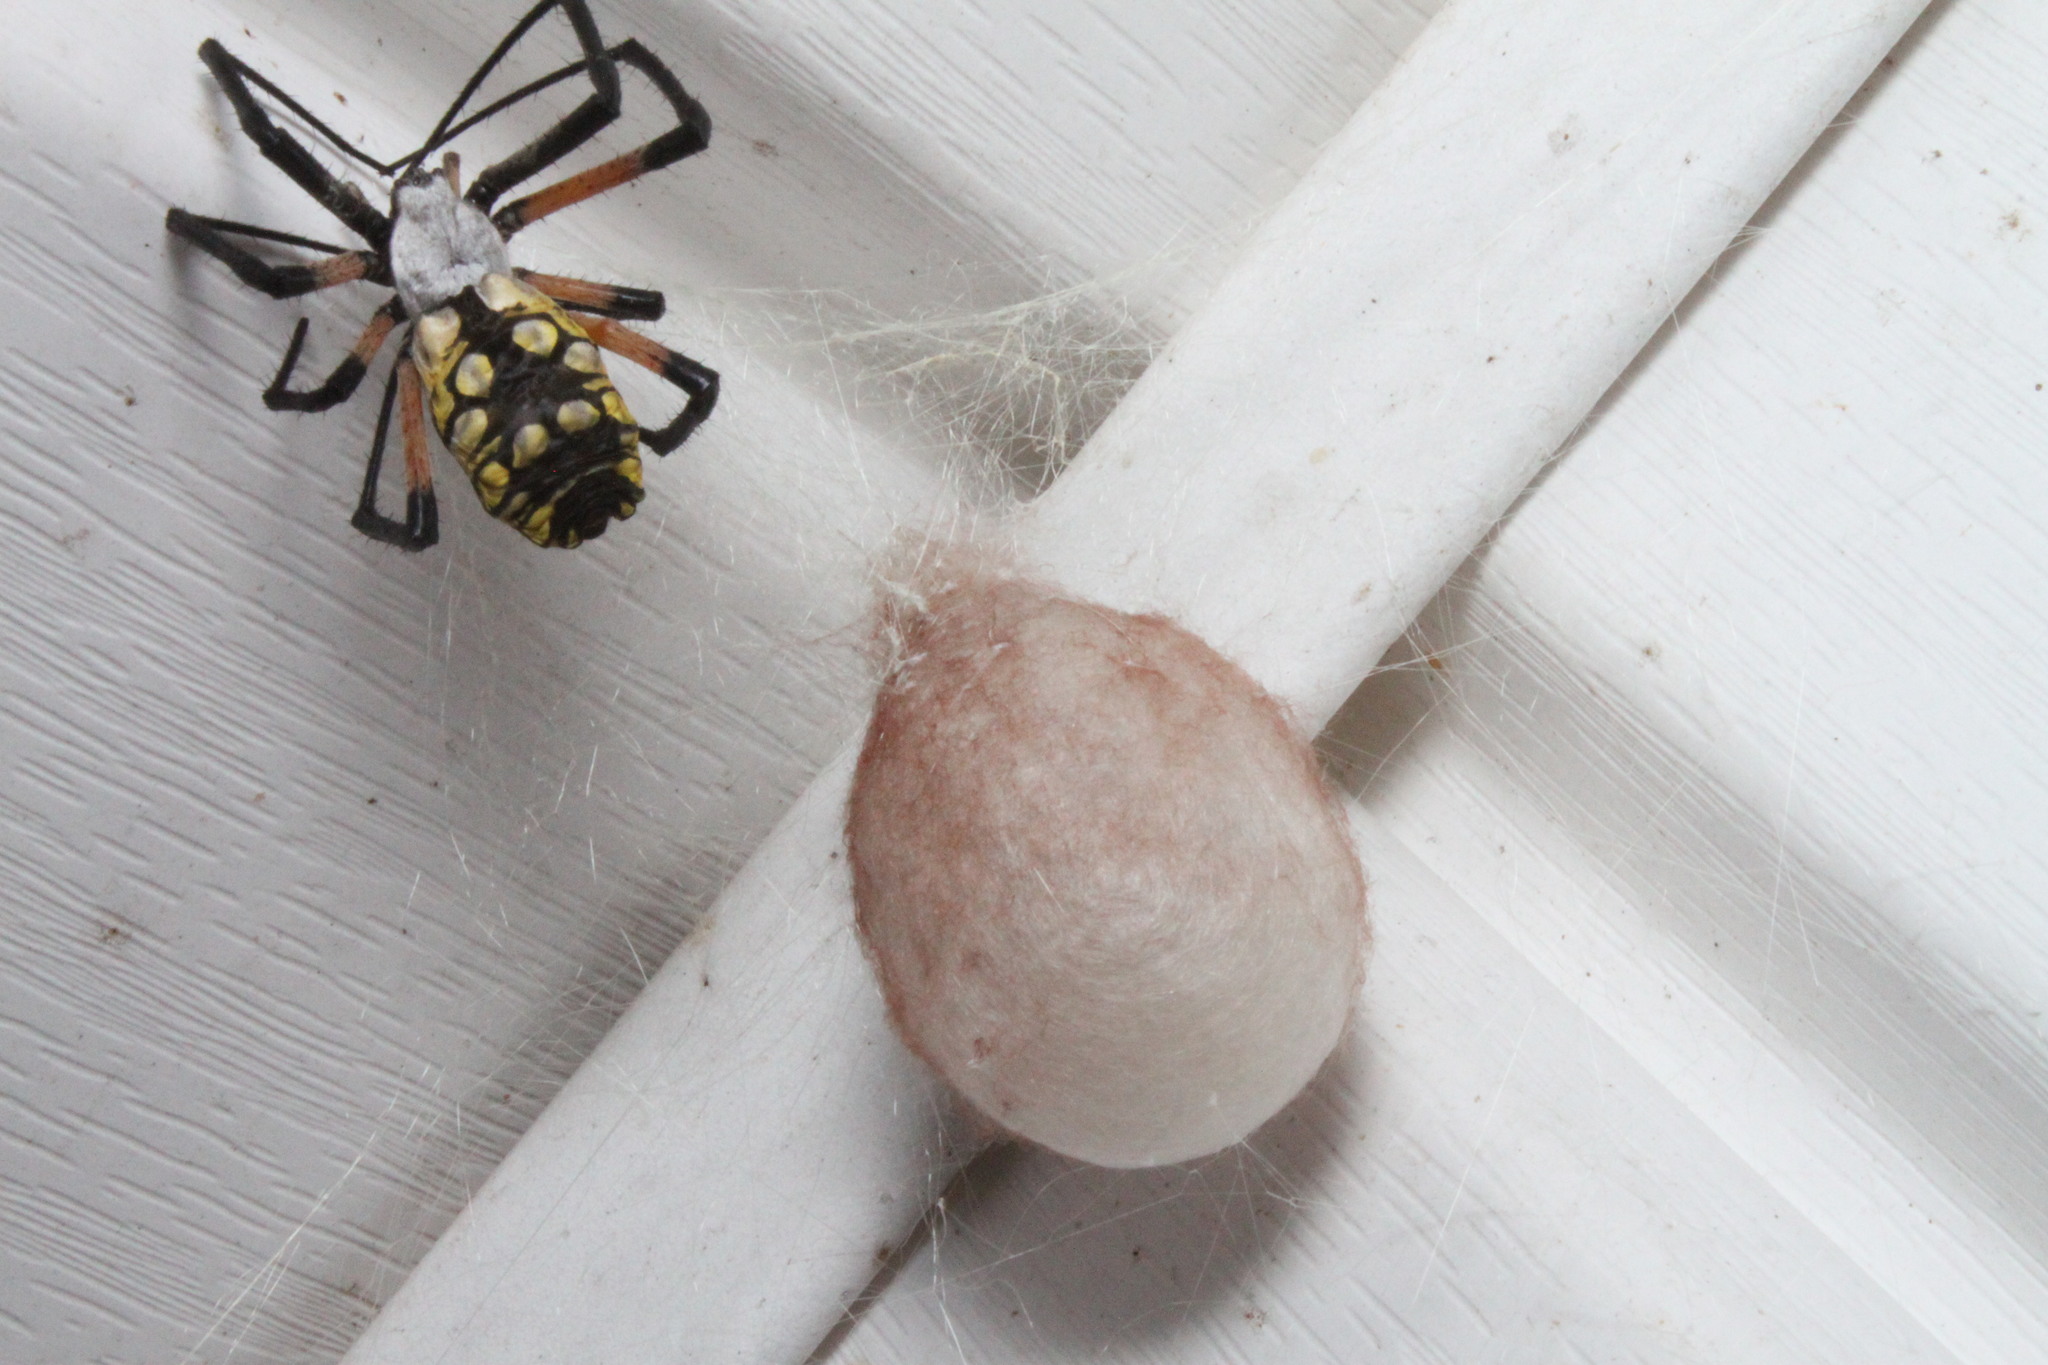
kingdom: Animalia
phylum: Arthropoda
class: Arachnida
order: Araneae
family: Araneidae
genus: Argiope
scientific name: Argiope aurantia
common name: Orb weavers
